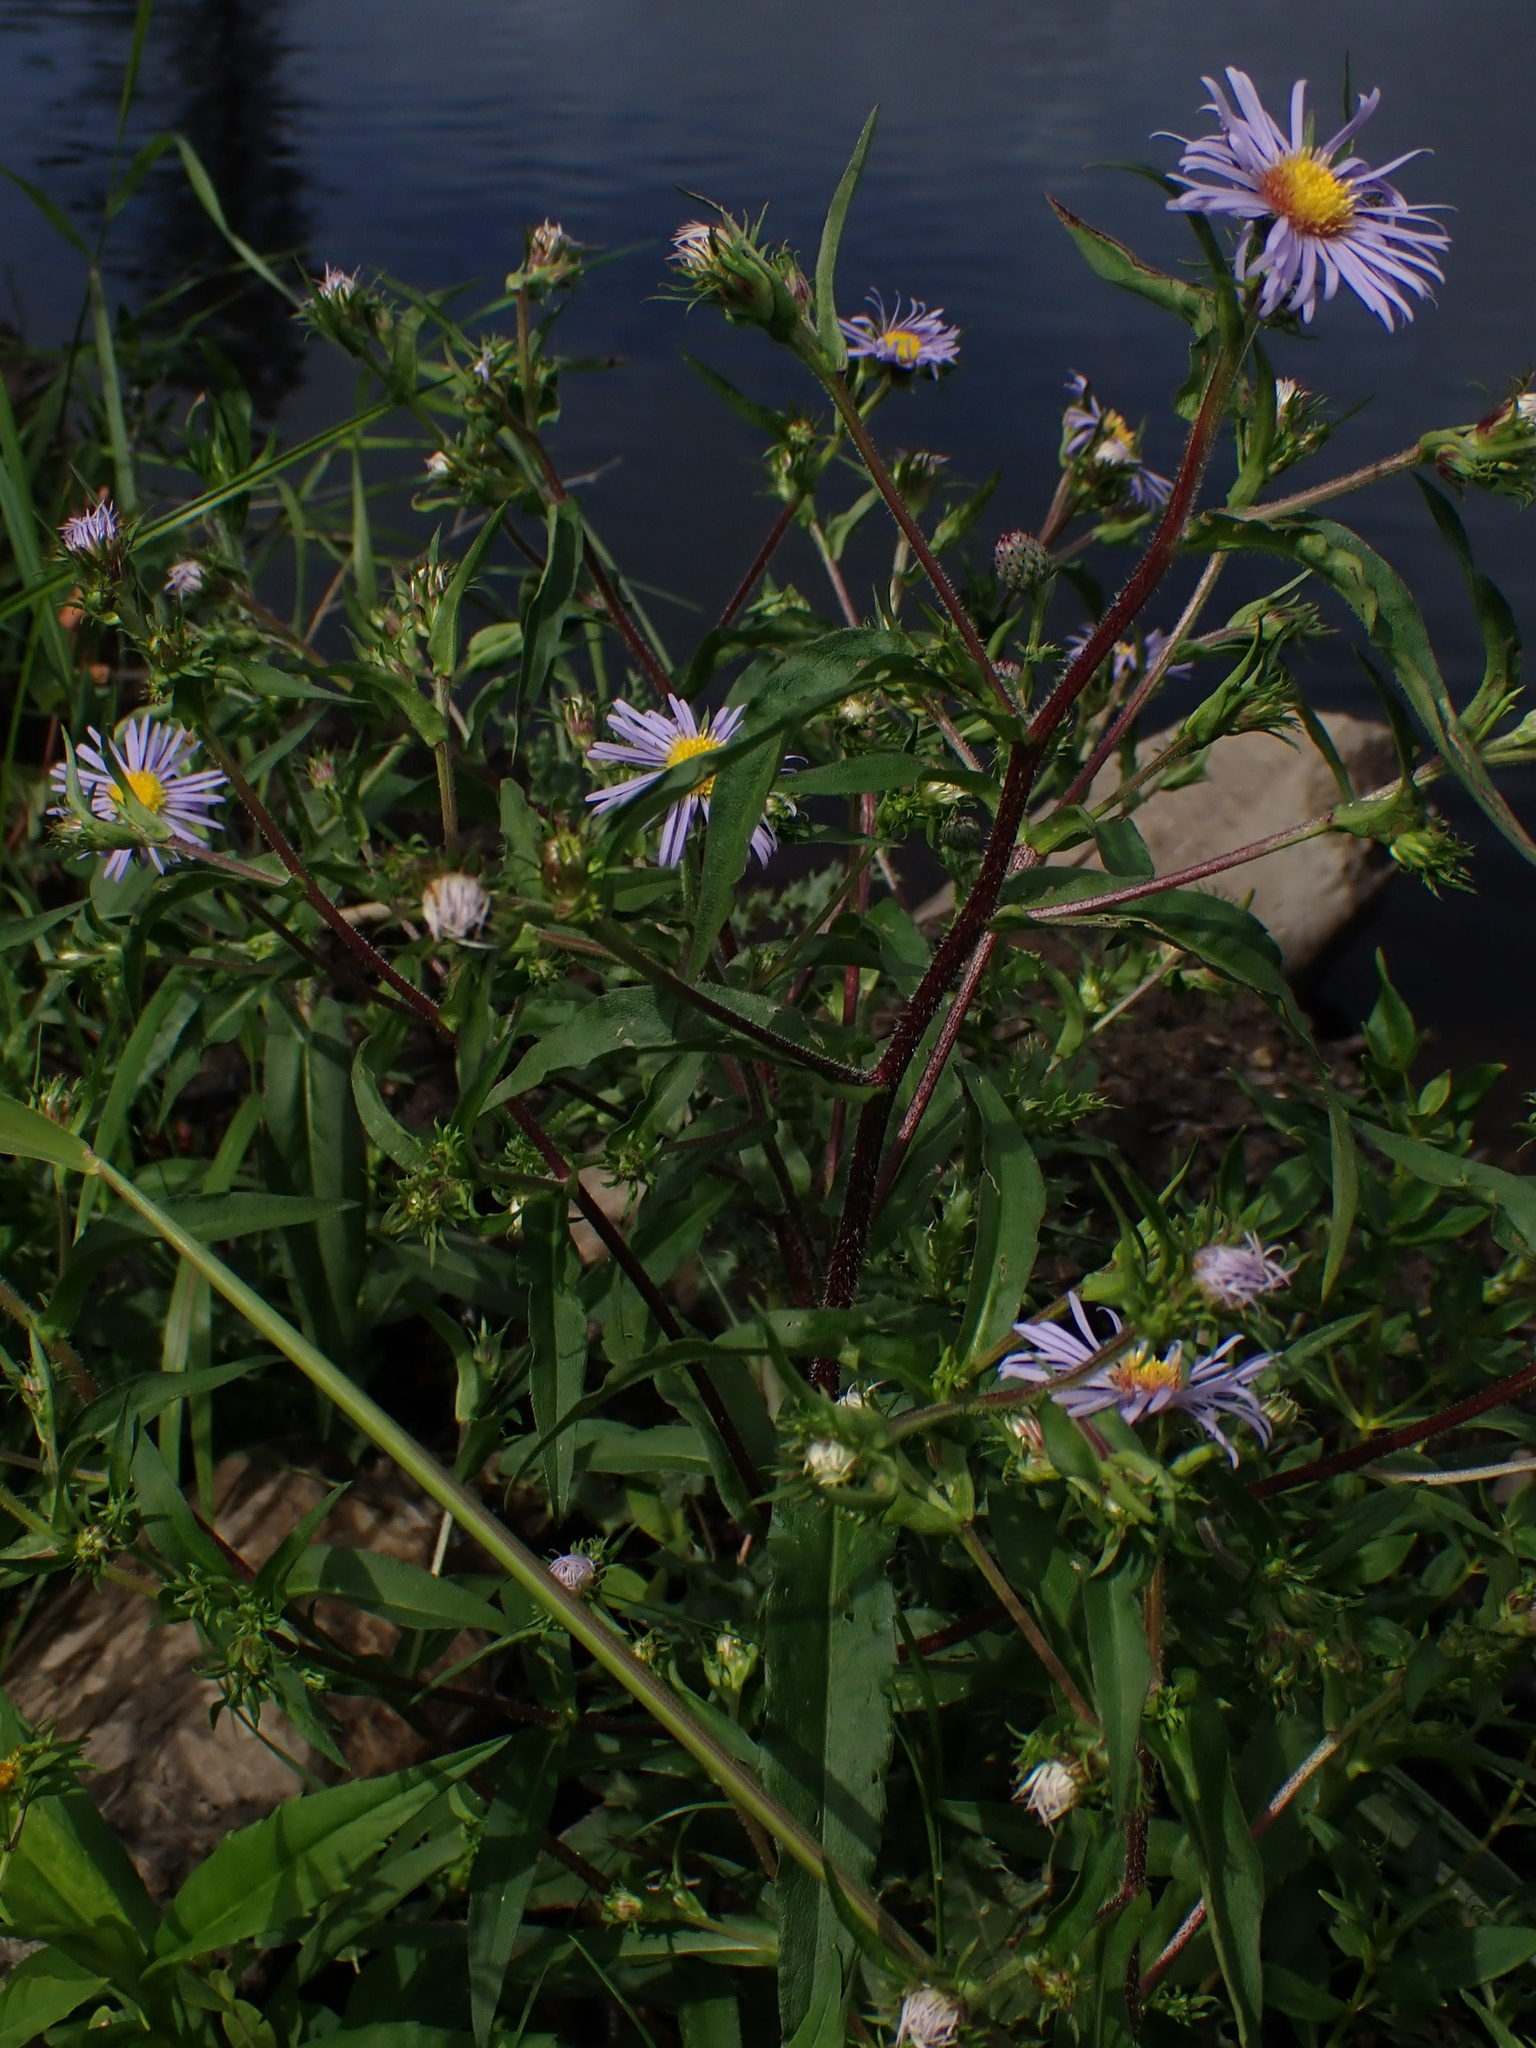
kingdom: Plantae
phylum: Tracheophyta
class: Magnoliopsida
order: Asterales
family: Asteraceae
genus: Symphyotrichum
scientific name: Symphyotrichum puniceum
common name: Bog aster
